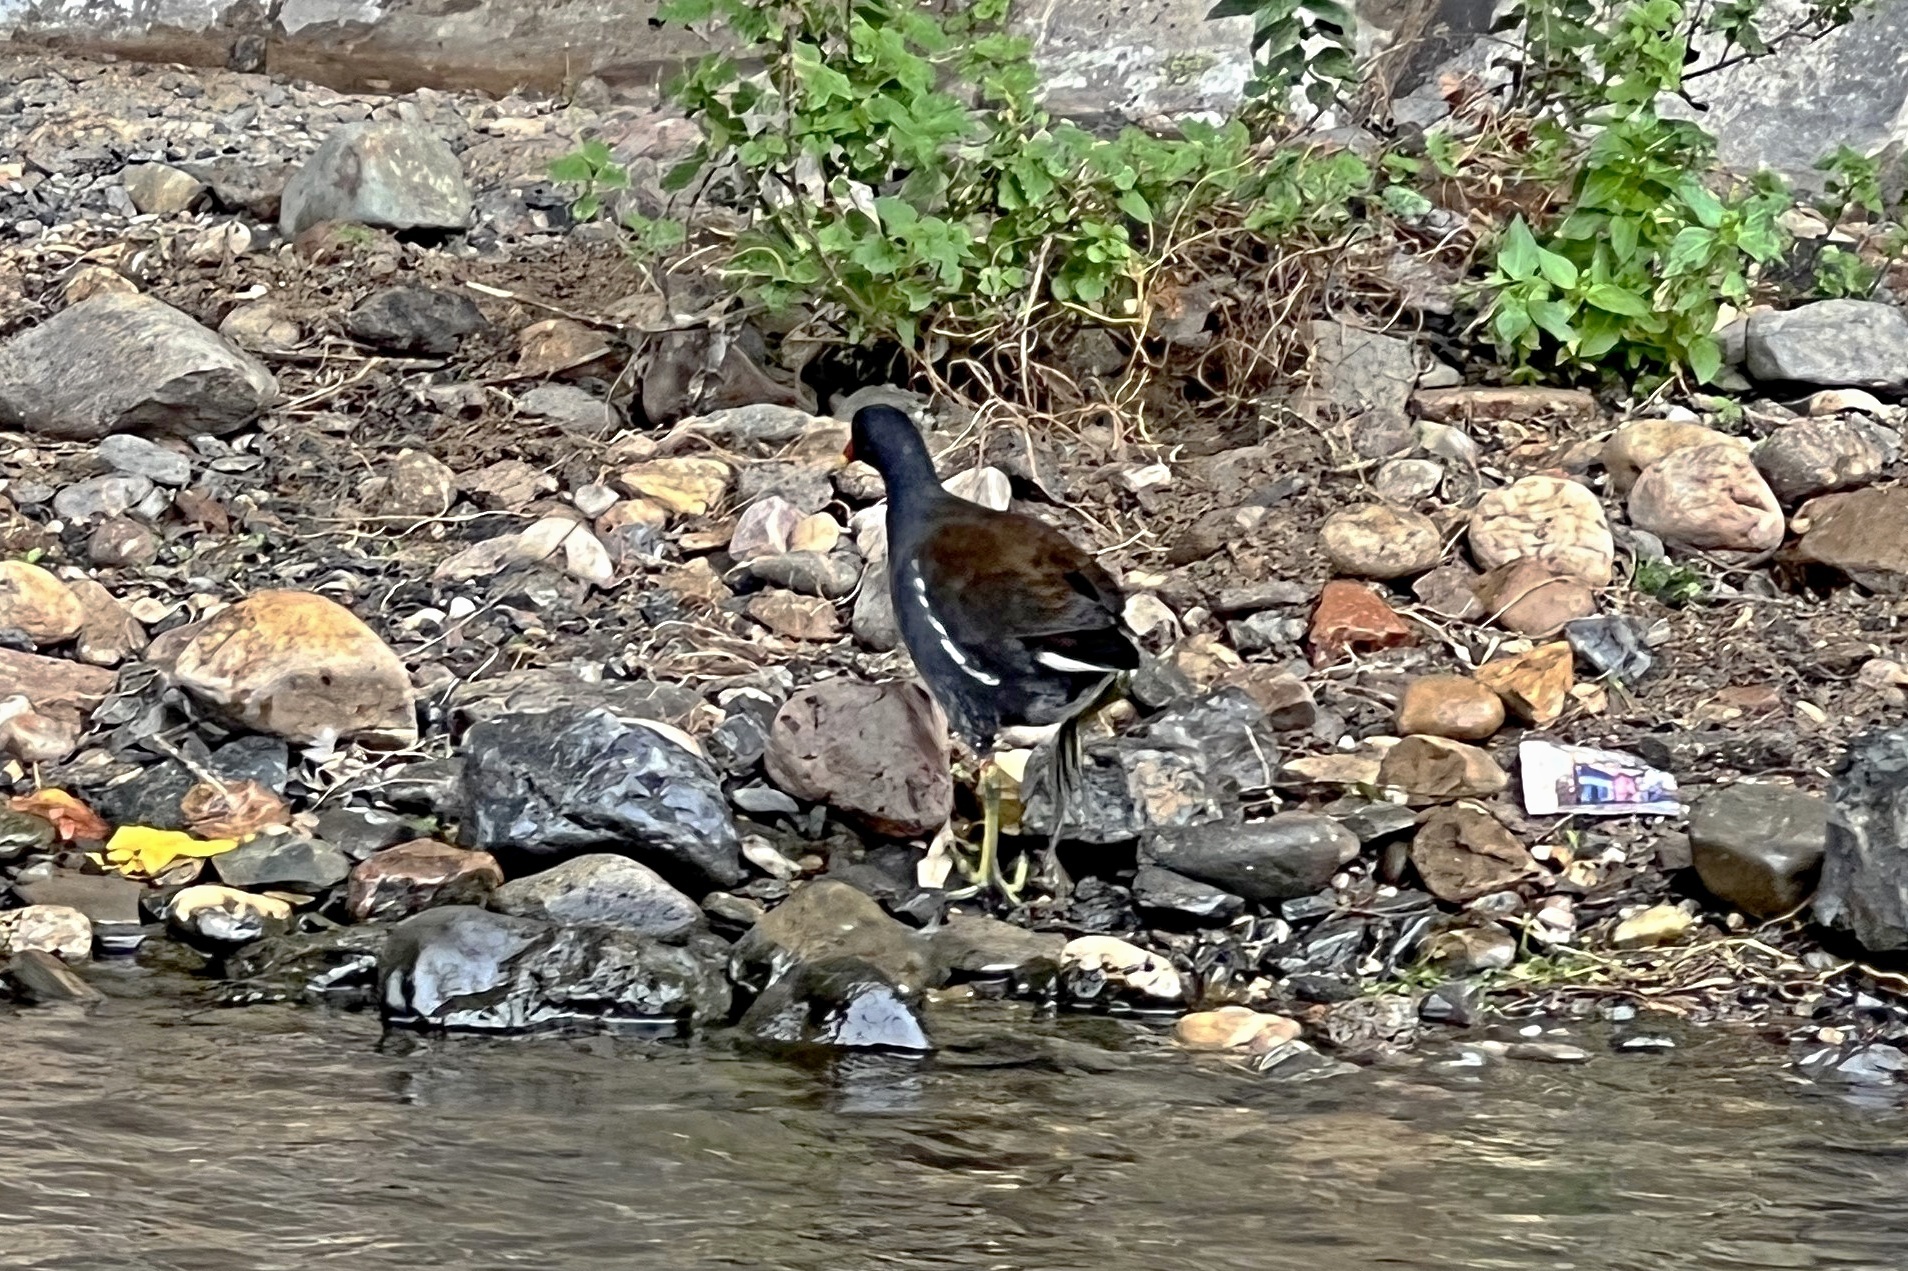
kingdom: Animalia
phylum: Chordata
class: Aves
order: Gruiformes
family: Rallidae
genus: Gallinula
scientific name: Gallinula chloropus
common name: Common moorhen
